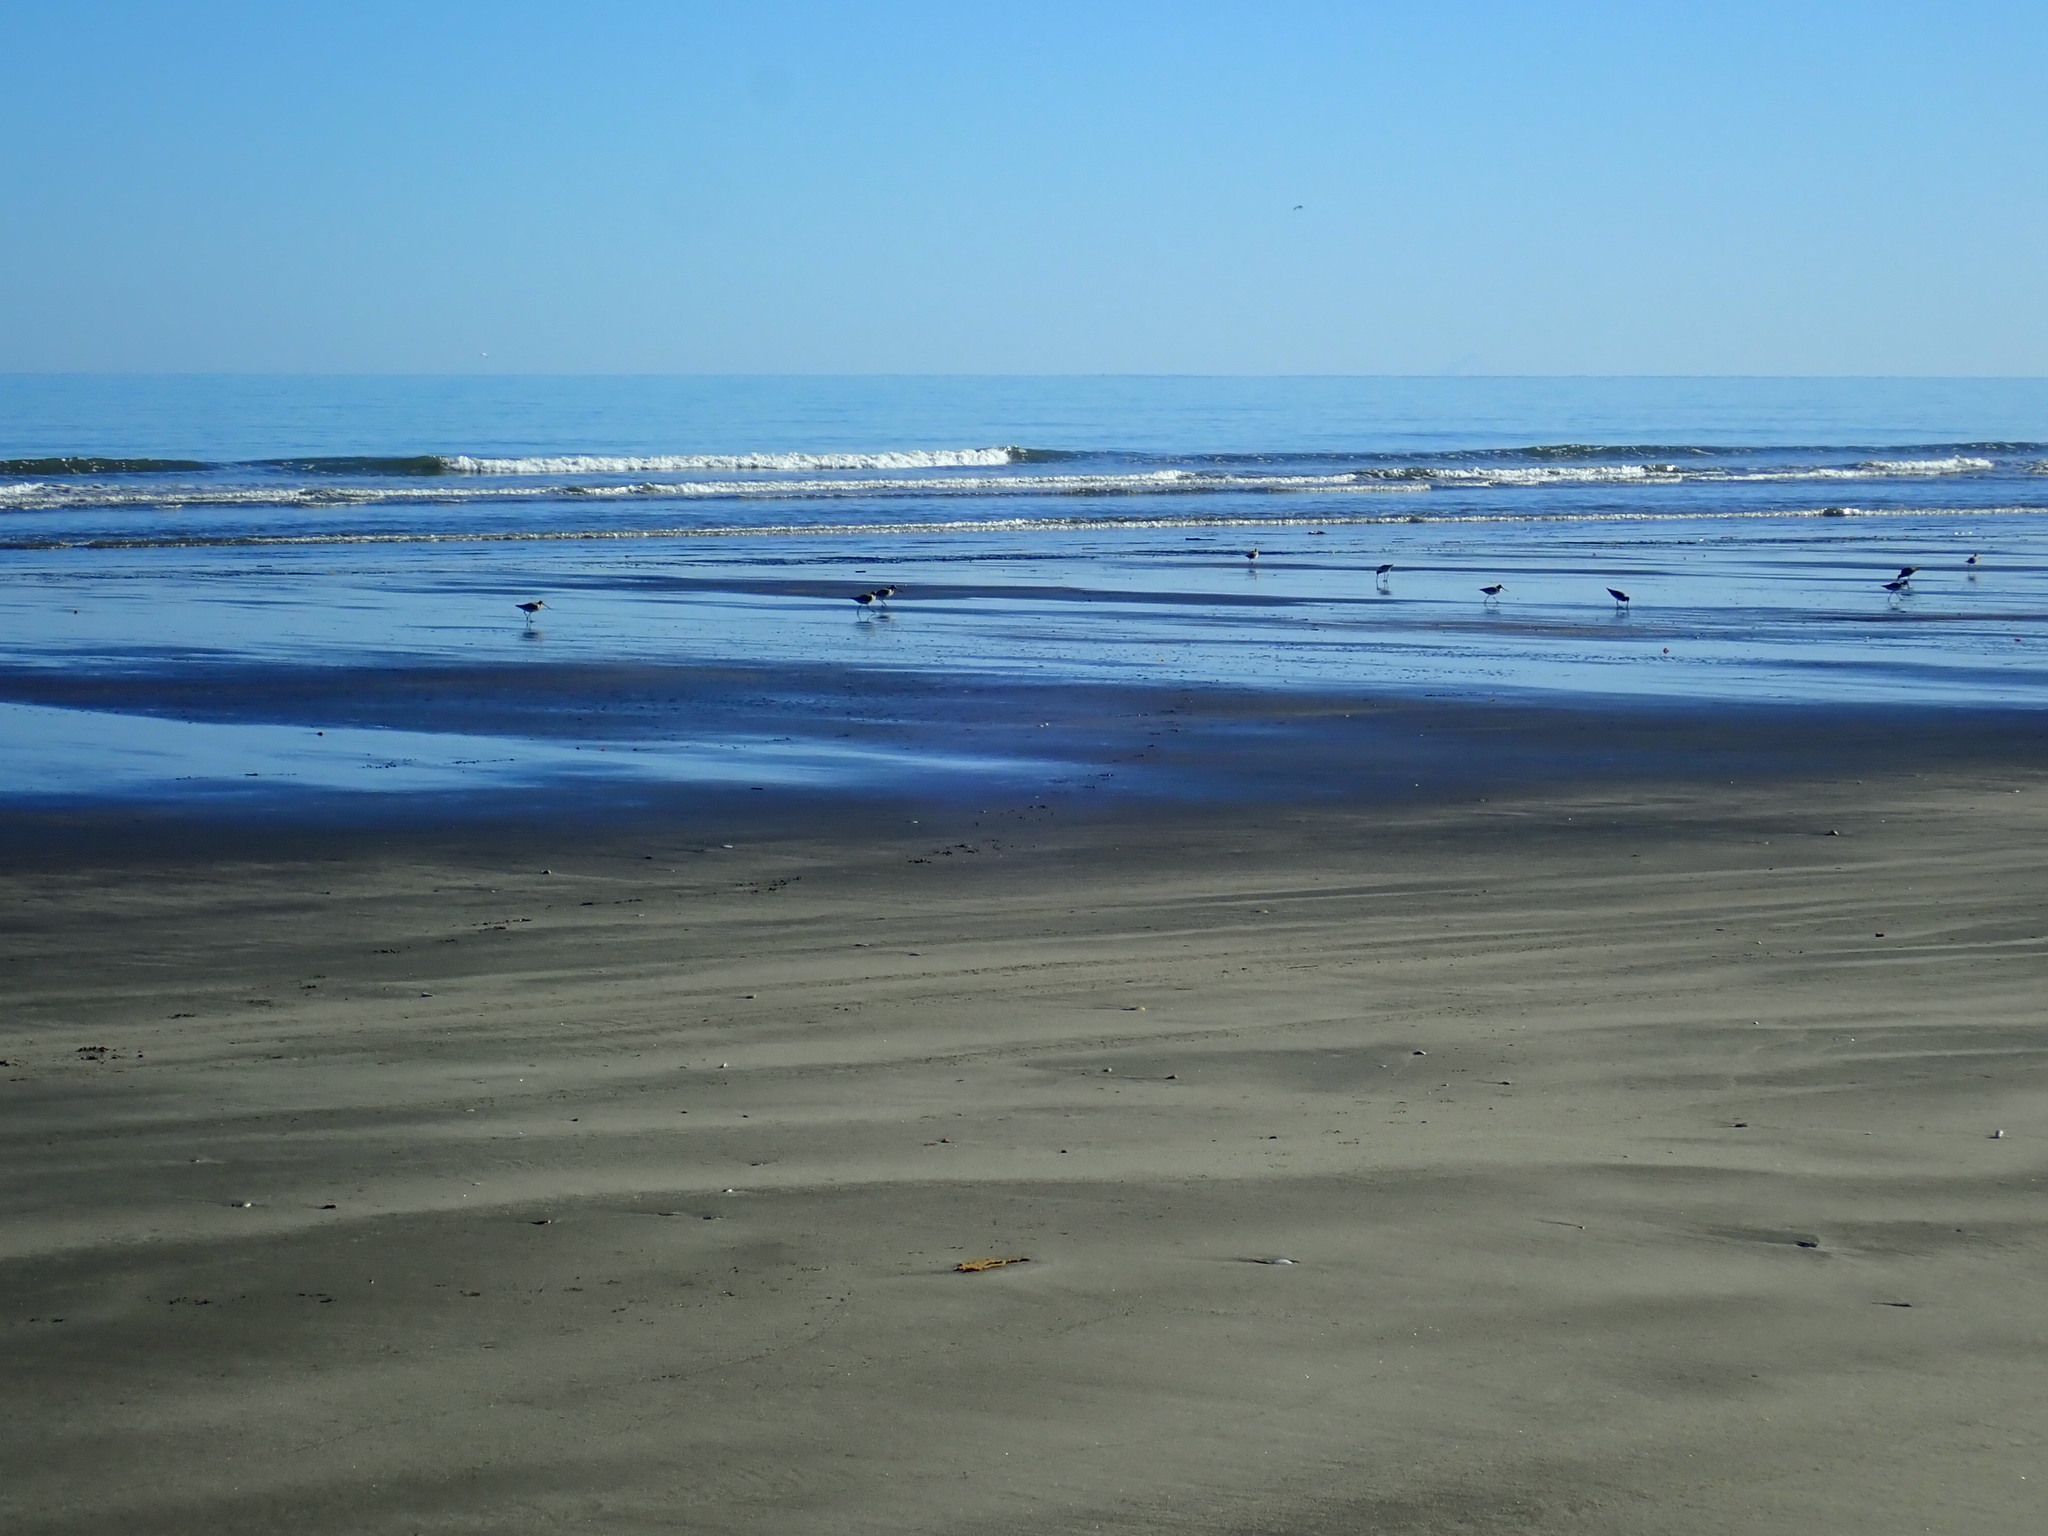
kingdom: Animalia
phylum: Chordata
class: Aves
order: Charadriiformes
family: Scolopacidae
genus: Limosa
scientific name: Limosa lapponica
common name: Bar-tailed godwit
